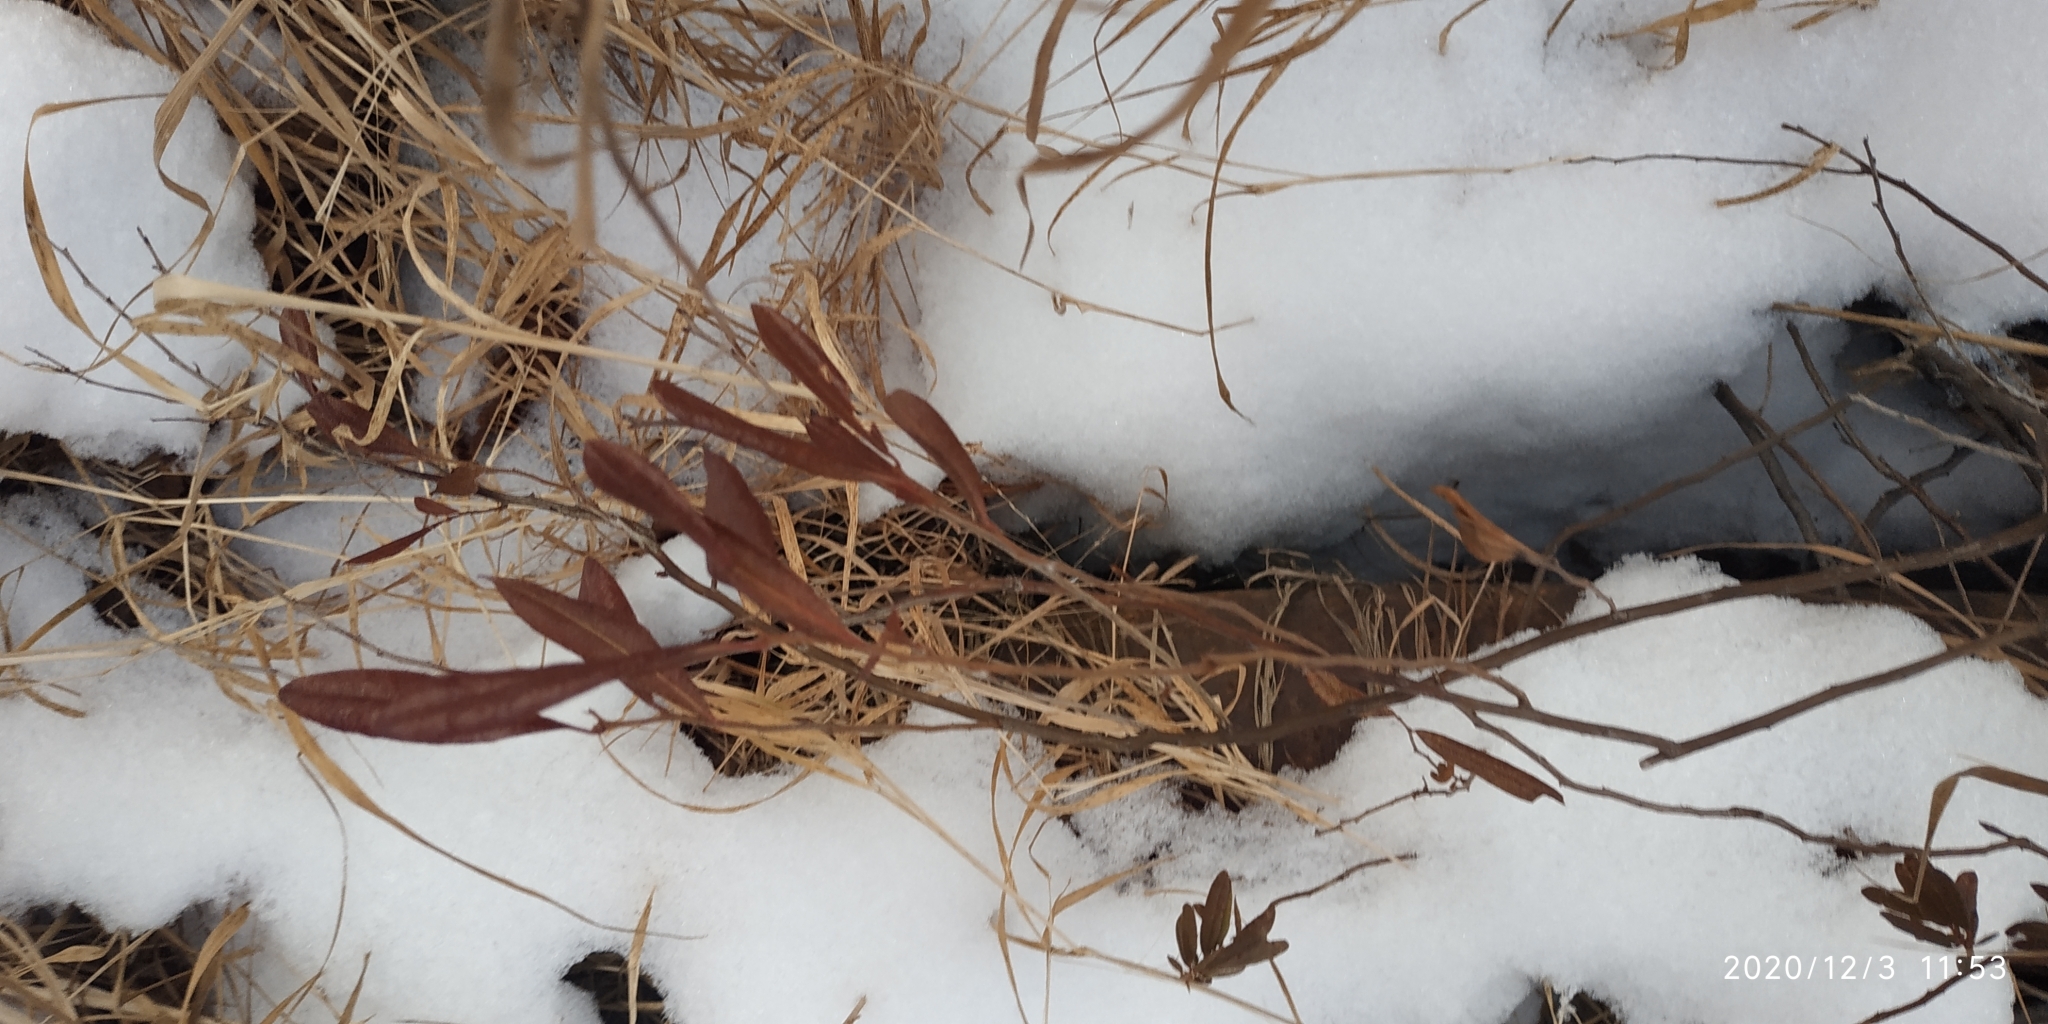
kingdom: Plantae
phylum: Tracheophyta
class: Magnoliopsida
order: Ericales
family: Ericaceae
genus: Chamaedaphne
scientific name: Chamaedaphne calyculata
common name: Leatherleaf
